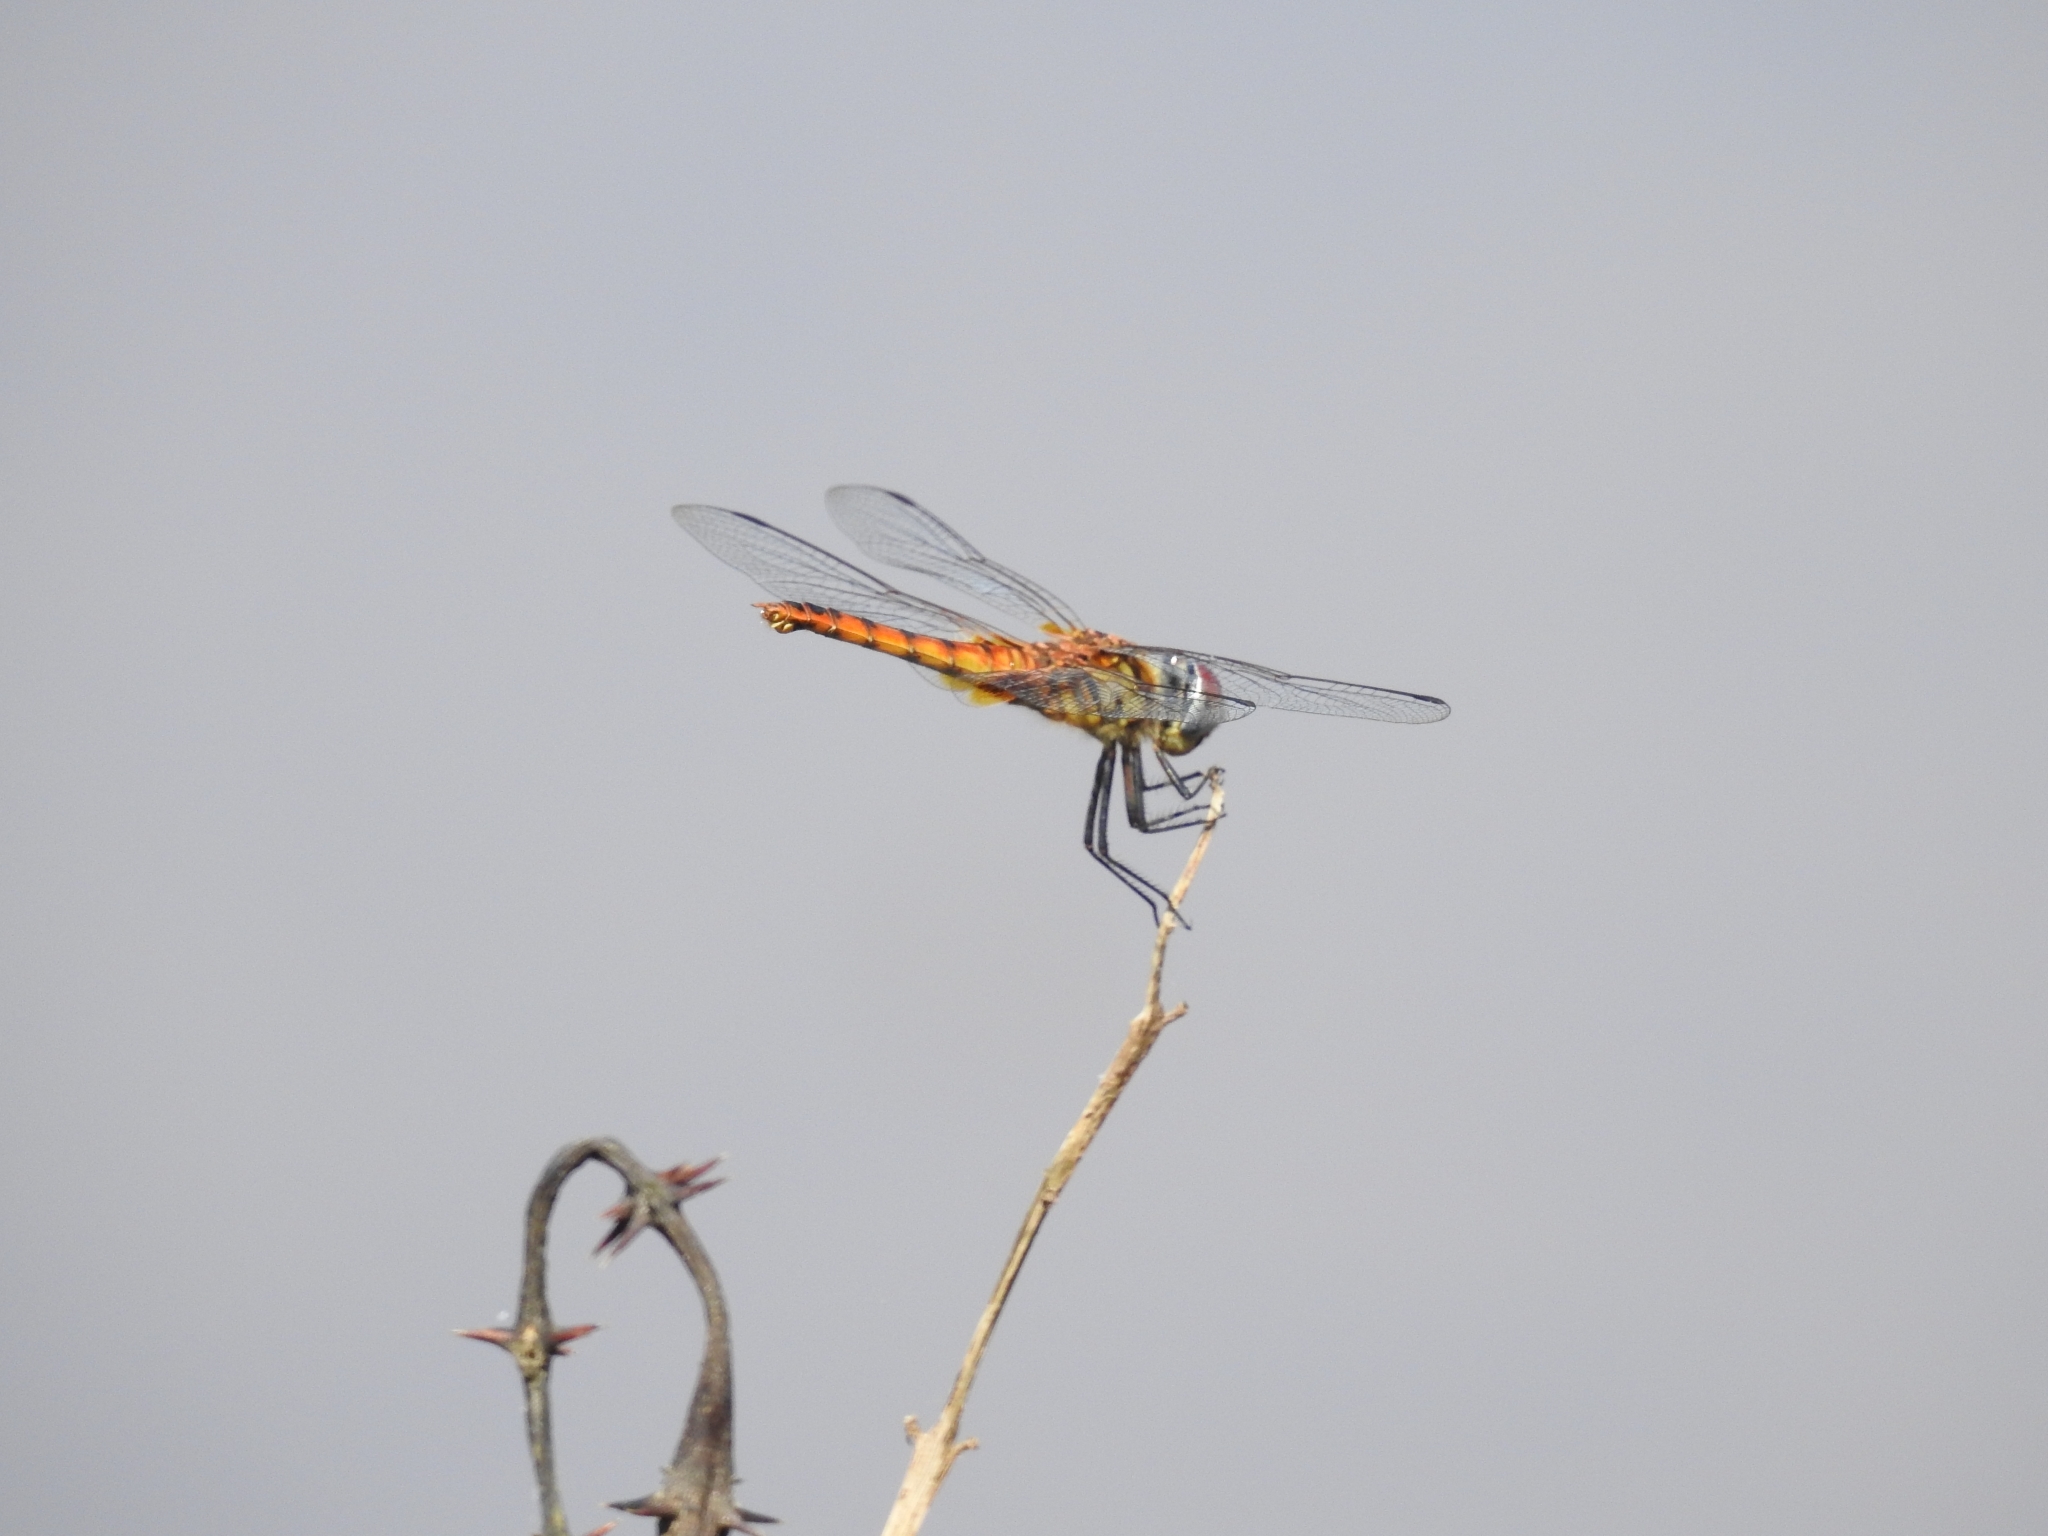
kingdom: Animalia
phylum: Arthropoda
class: Insecta
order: Odonata
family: Libellulidae
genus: Urothemis
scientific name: Urothemis signata
